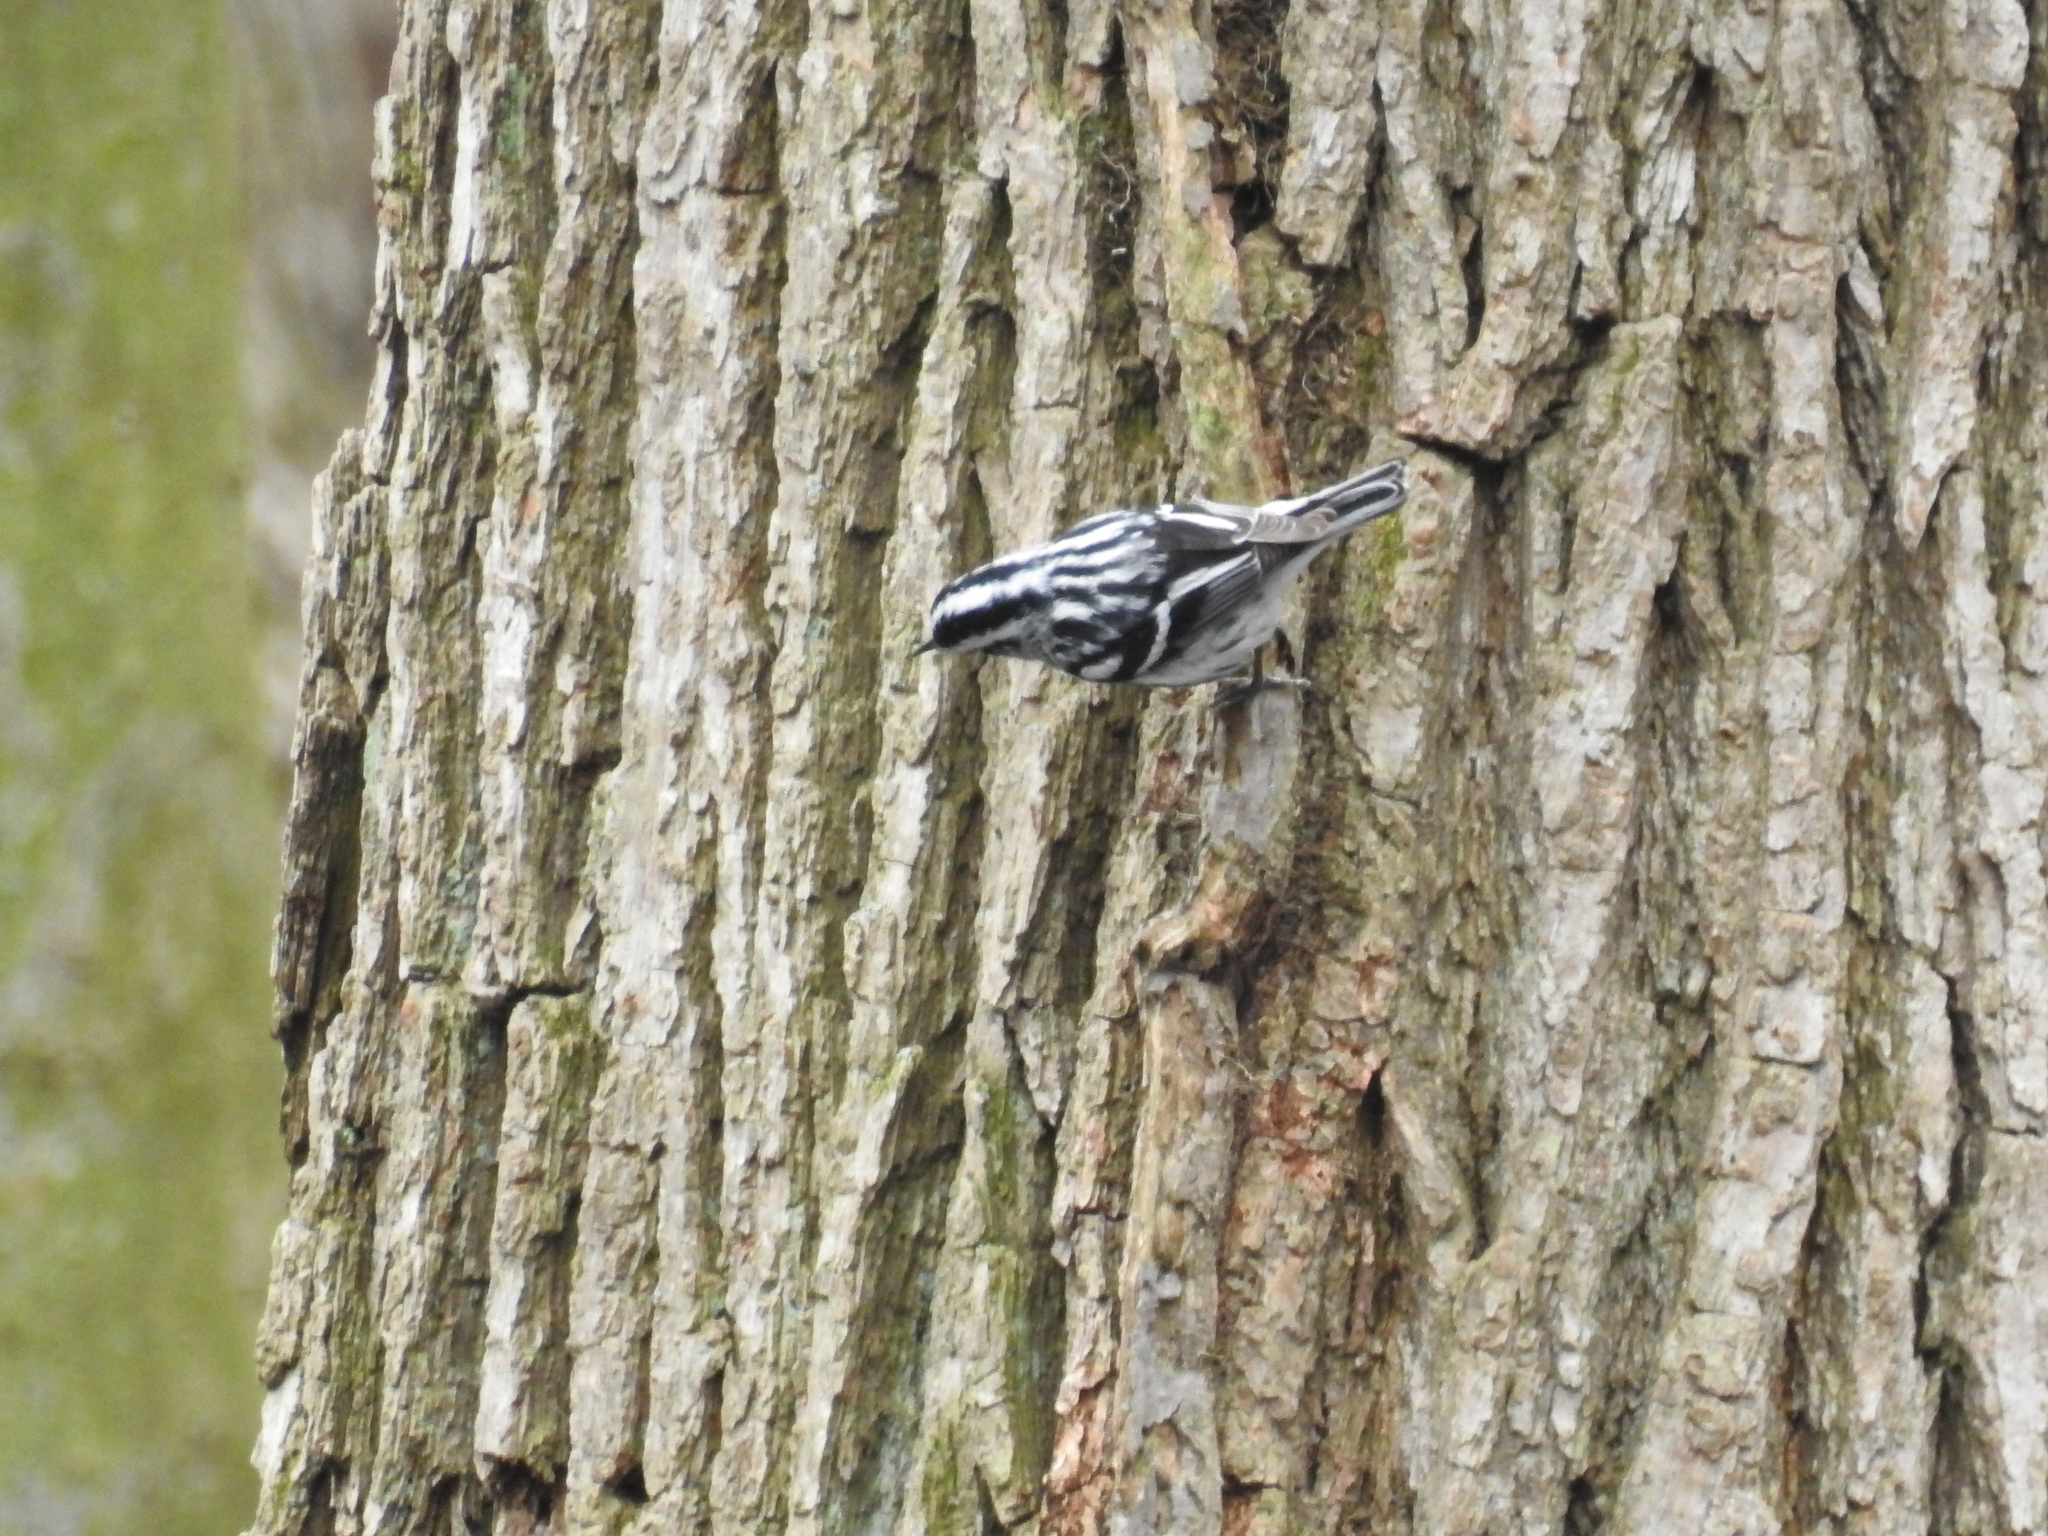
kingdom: Animalia
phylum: Chordata
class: Aves
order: Passeriformes
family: Parulidae
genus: Mniotilta
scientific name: Mniotilta varia
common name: Black-and-white warbler
